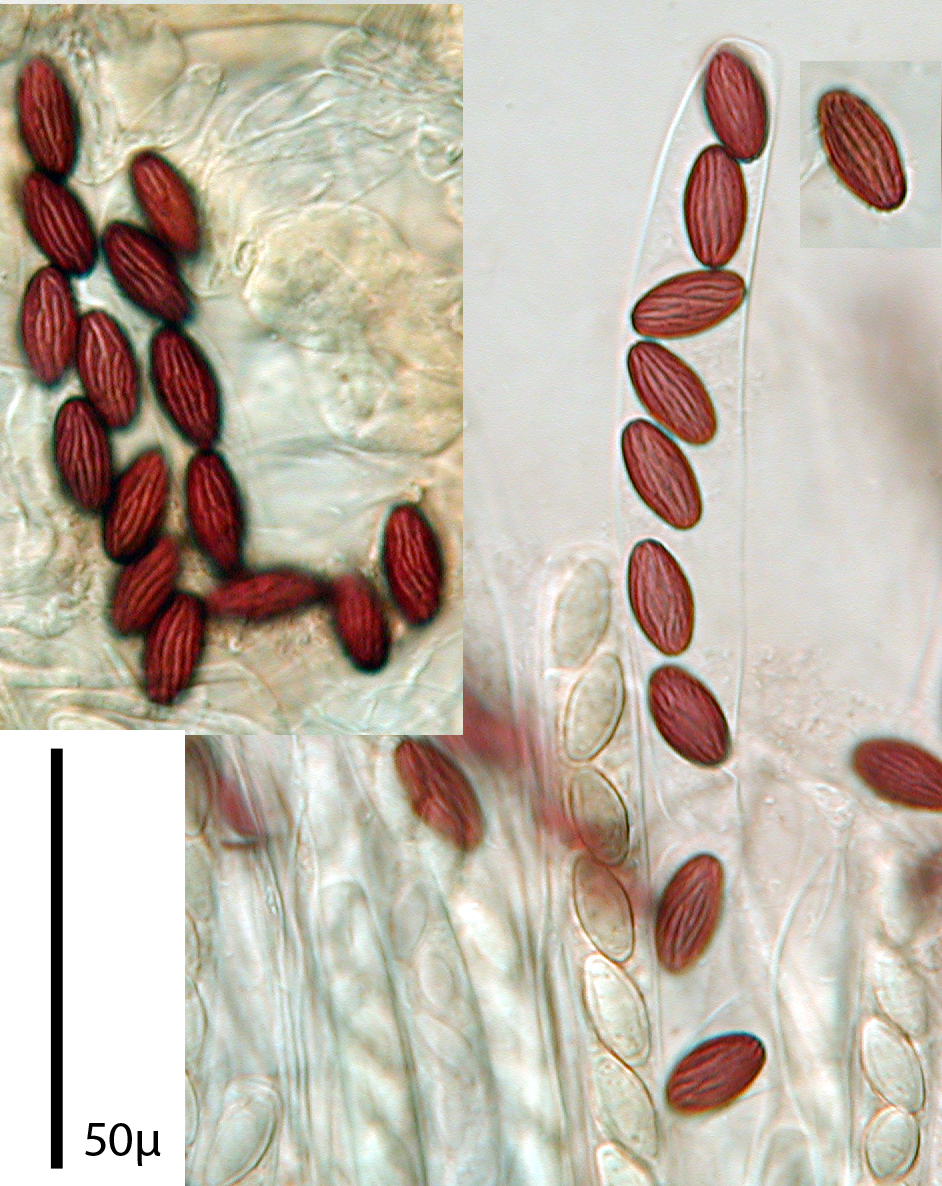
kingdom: Fungi
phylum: Ascomycota
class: Pezizomycetes
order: Pezizales
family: Ascobolaceae
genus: Ascobolus
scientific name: Ascobolus lignatilis
